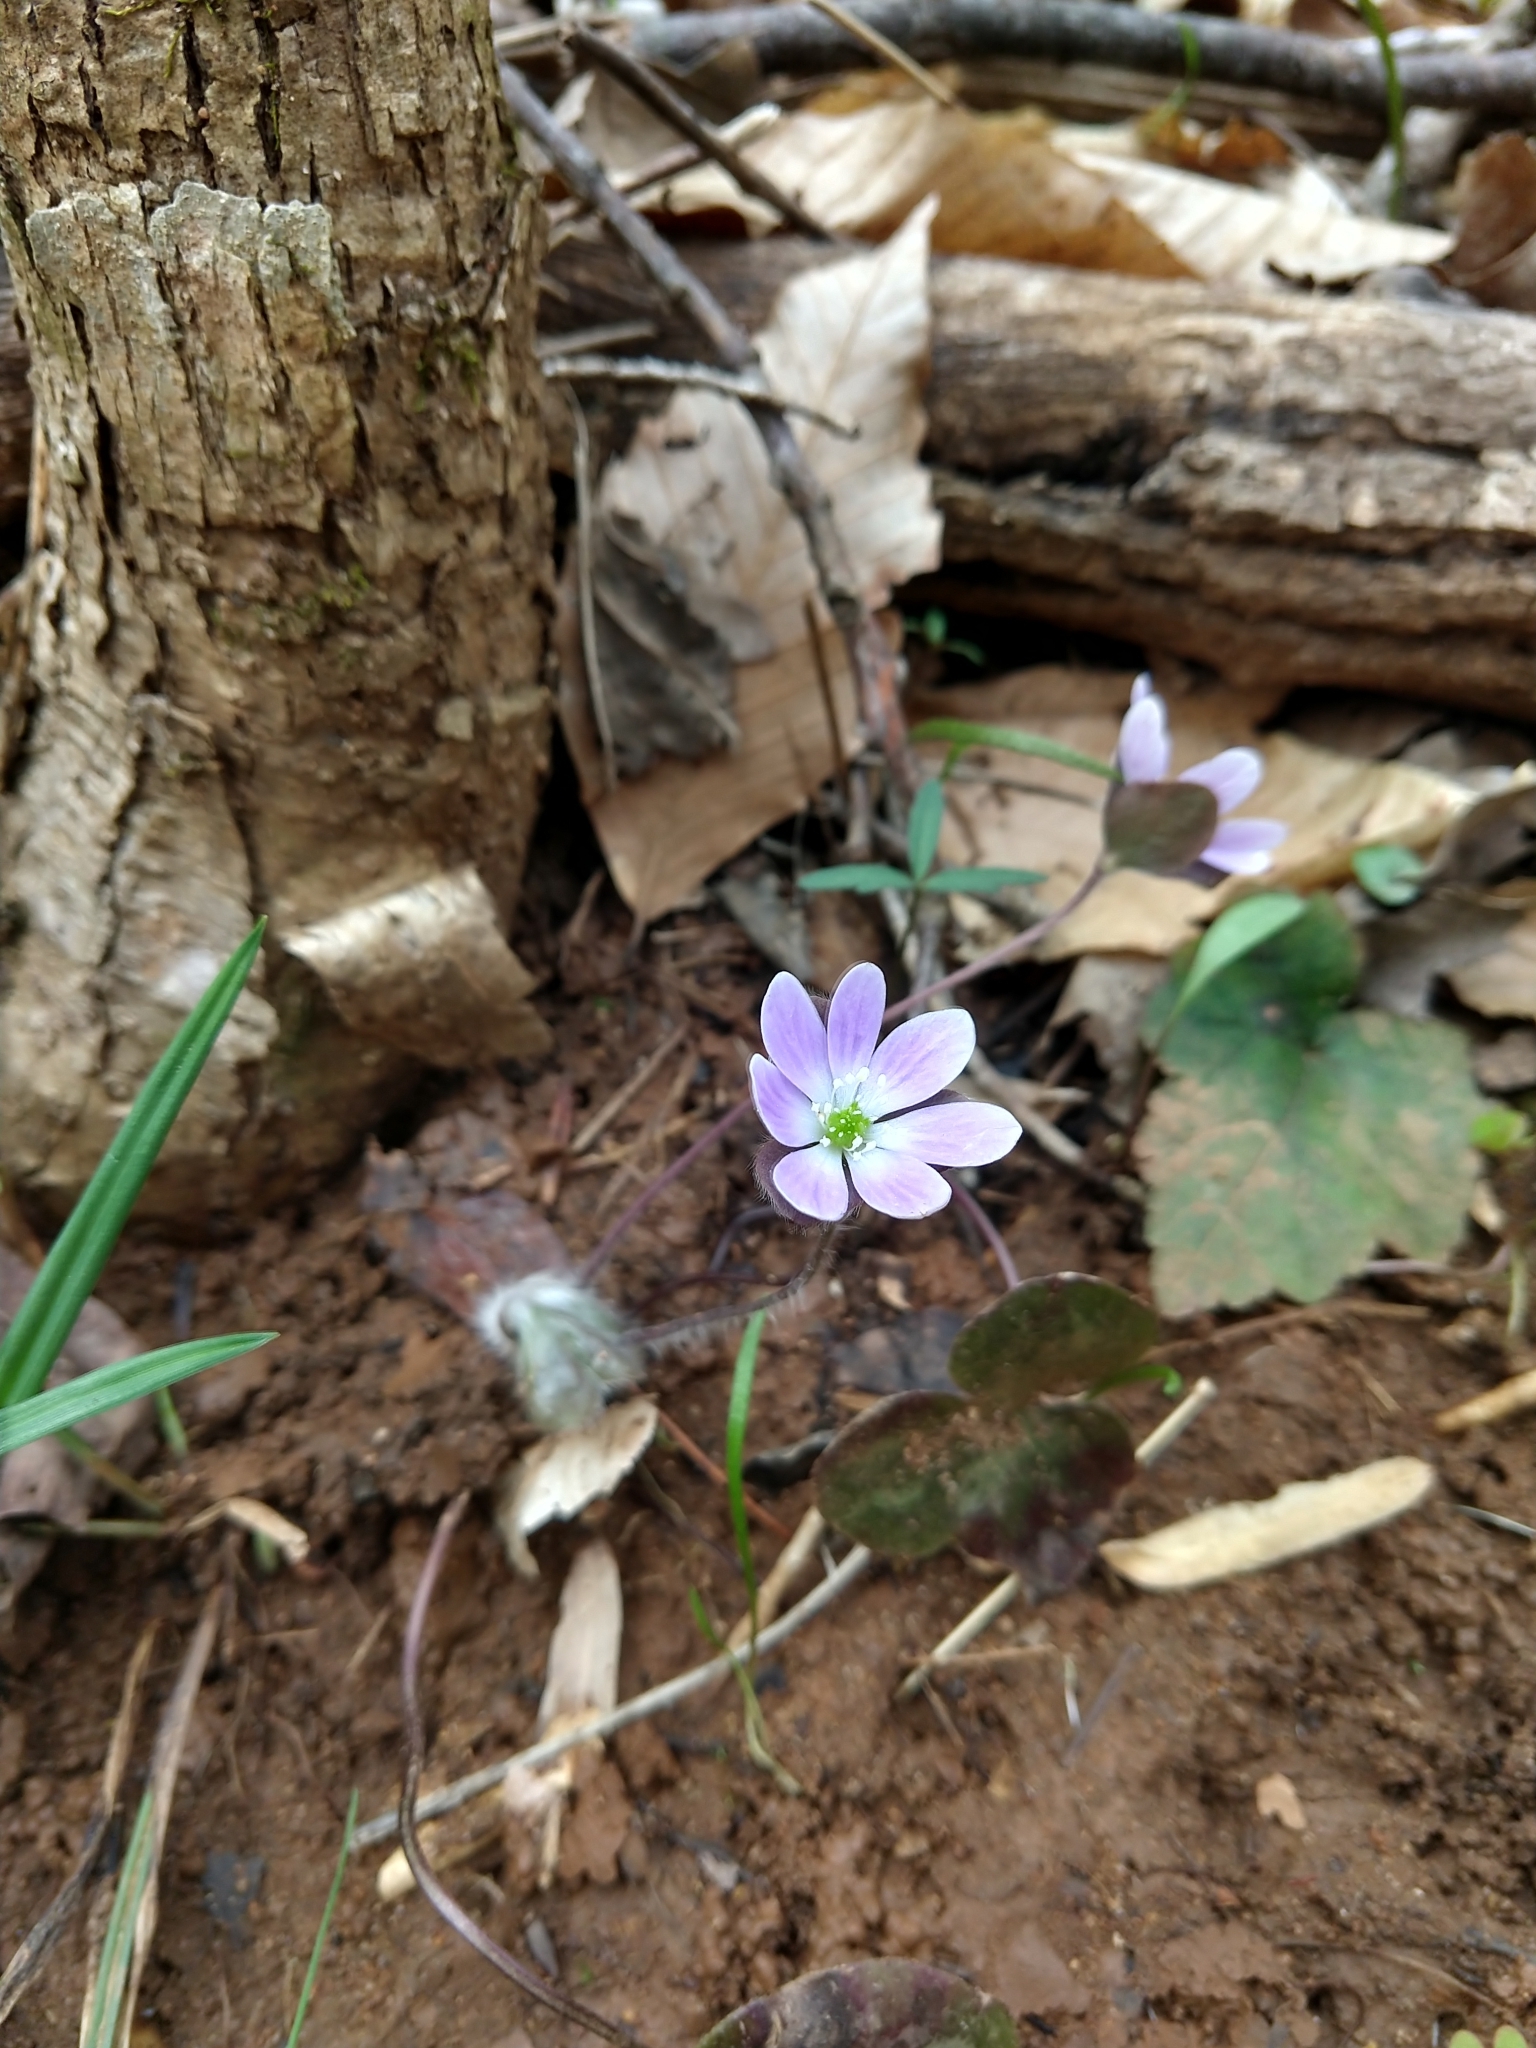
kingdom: Plantae
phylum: Tracheophyta
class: Magnoliopsida
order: Ranunculales
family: Ranunculaceae
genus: Hepatica
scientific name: Hepatica americana
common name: American hepatica
